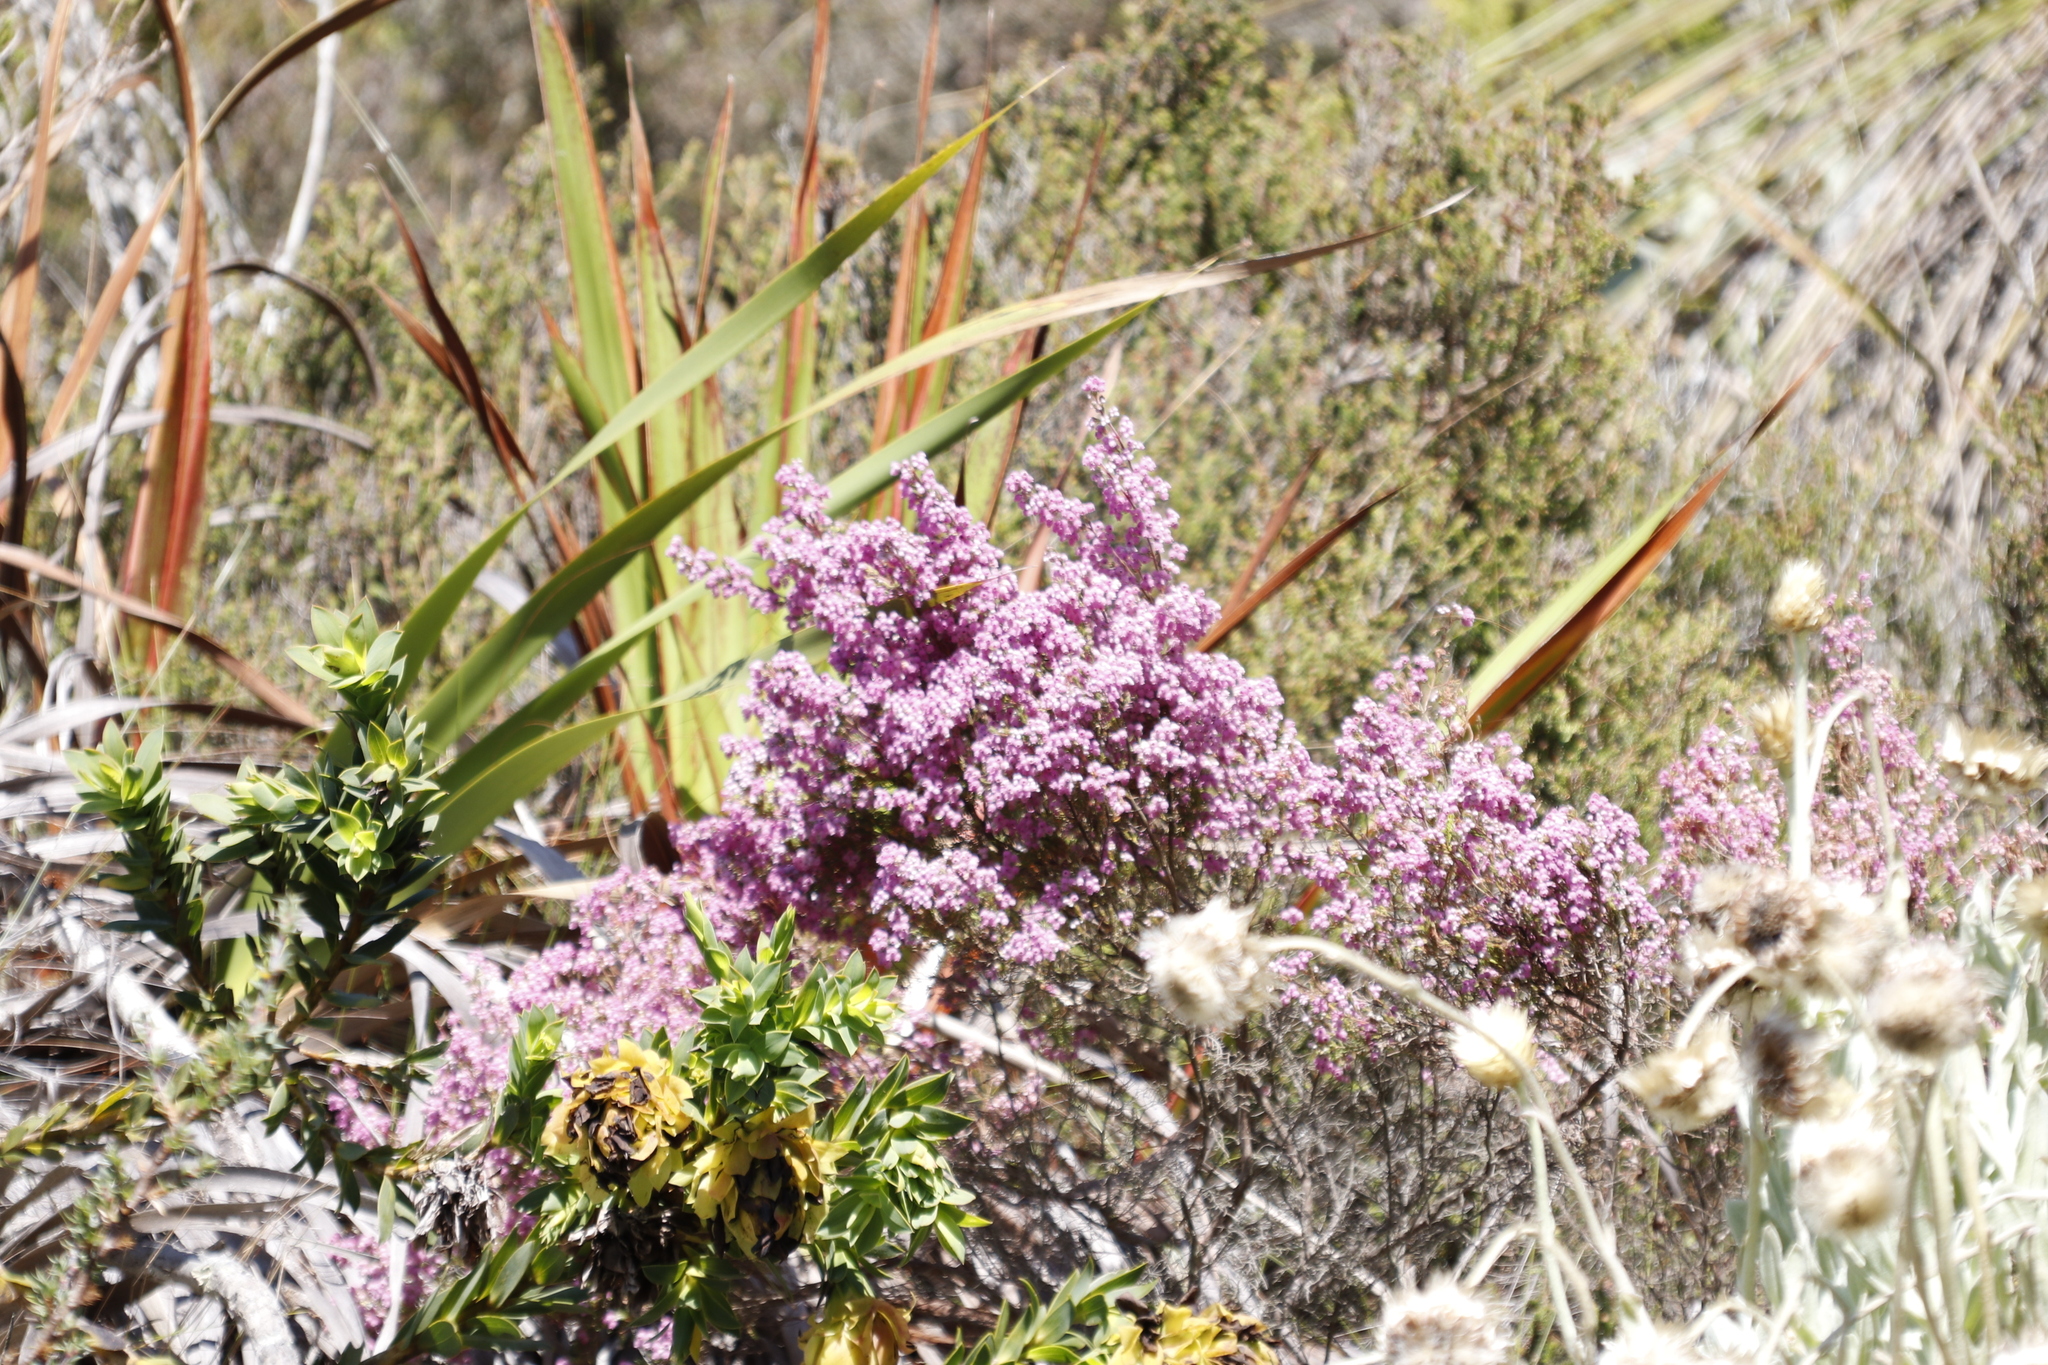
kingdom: Plantae
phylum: Tracheophyta
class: Magnoliopsida
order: Ericales
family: Ericaceae
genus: Erica
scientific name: Erica hirtiflora
